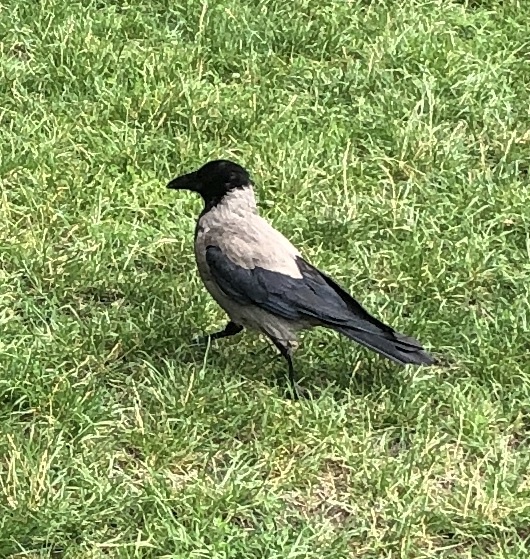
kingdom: Animalia
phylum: Chordata
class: Aves
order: Passeriformes
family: Corvidae
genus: Corvus
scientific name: Corvus cornix
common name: Hooded crow
